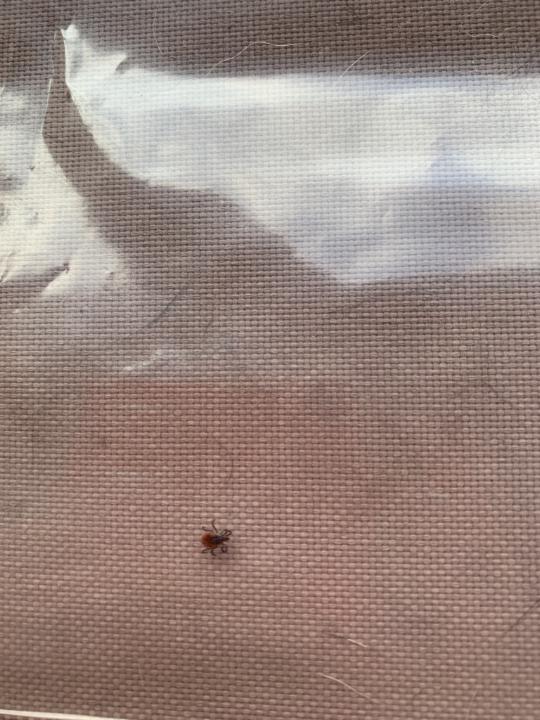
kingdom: Animalia
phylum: Arthropoda
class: Arachnida
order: Ixodida
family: Ixodidae
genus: Ixodes
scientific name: Ixodes scapularis
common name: Black legged tick
